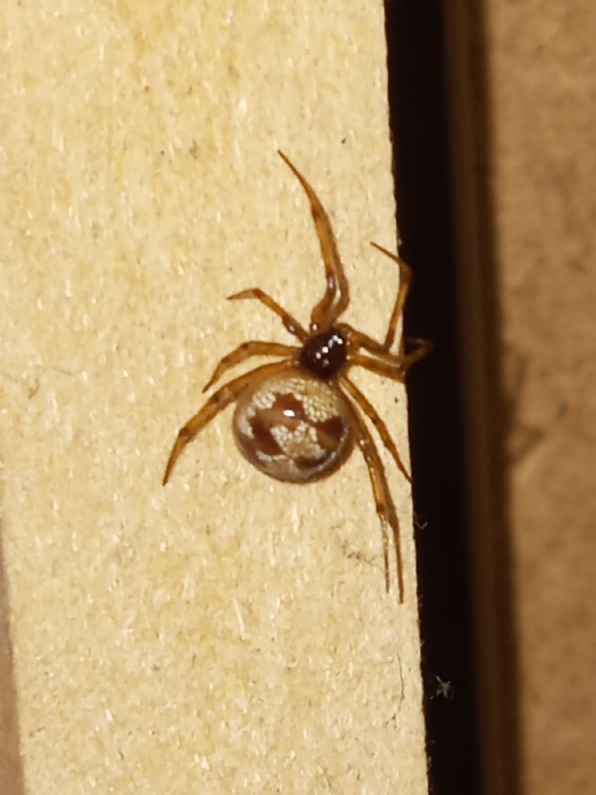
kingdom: Animalia
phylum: Arthropoda
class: Arachnida
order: Araneae
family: Theridiidae
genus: Steatoda
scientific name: Steatoda triangulosa
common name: Triangulate bud spider
